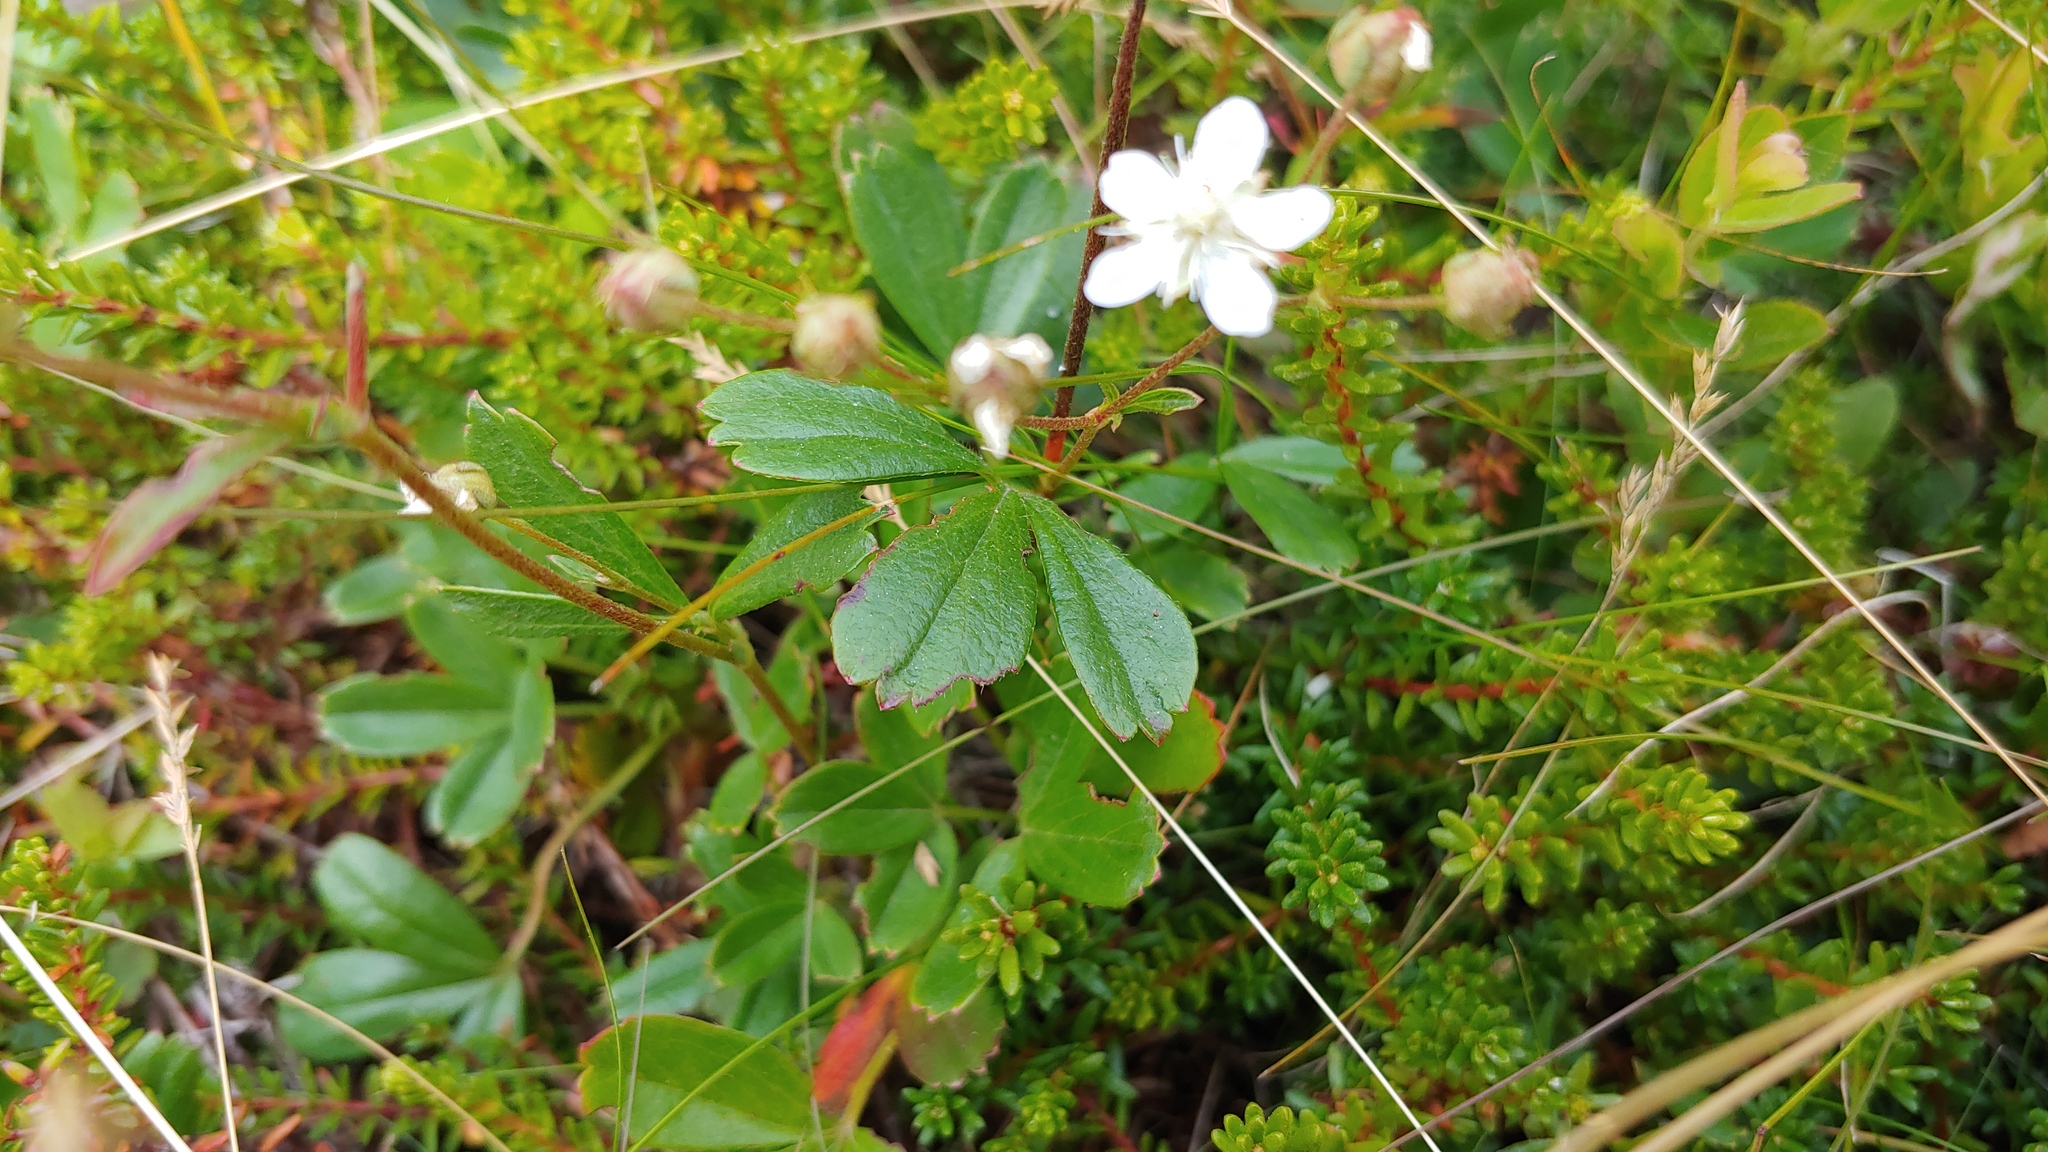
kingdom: Plantae
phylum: Tracheophyta
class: Magnoliopsida
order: Rosales
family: Rosaceae
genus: Sibbaldia
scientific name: Sibbaldia tridentata
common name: Three-toothed cinquefoil
